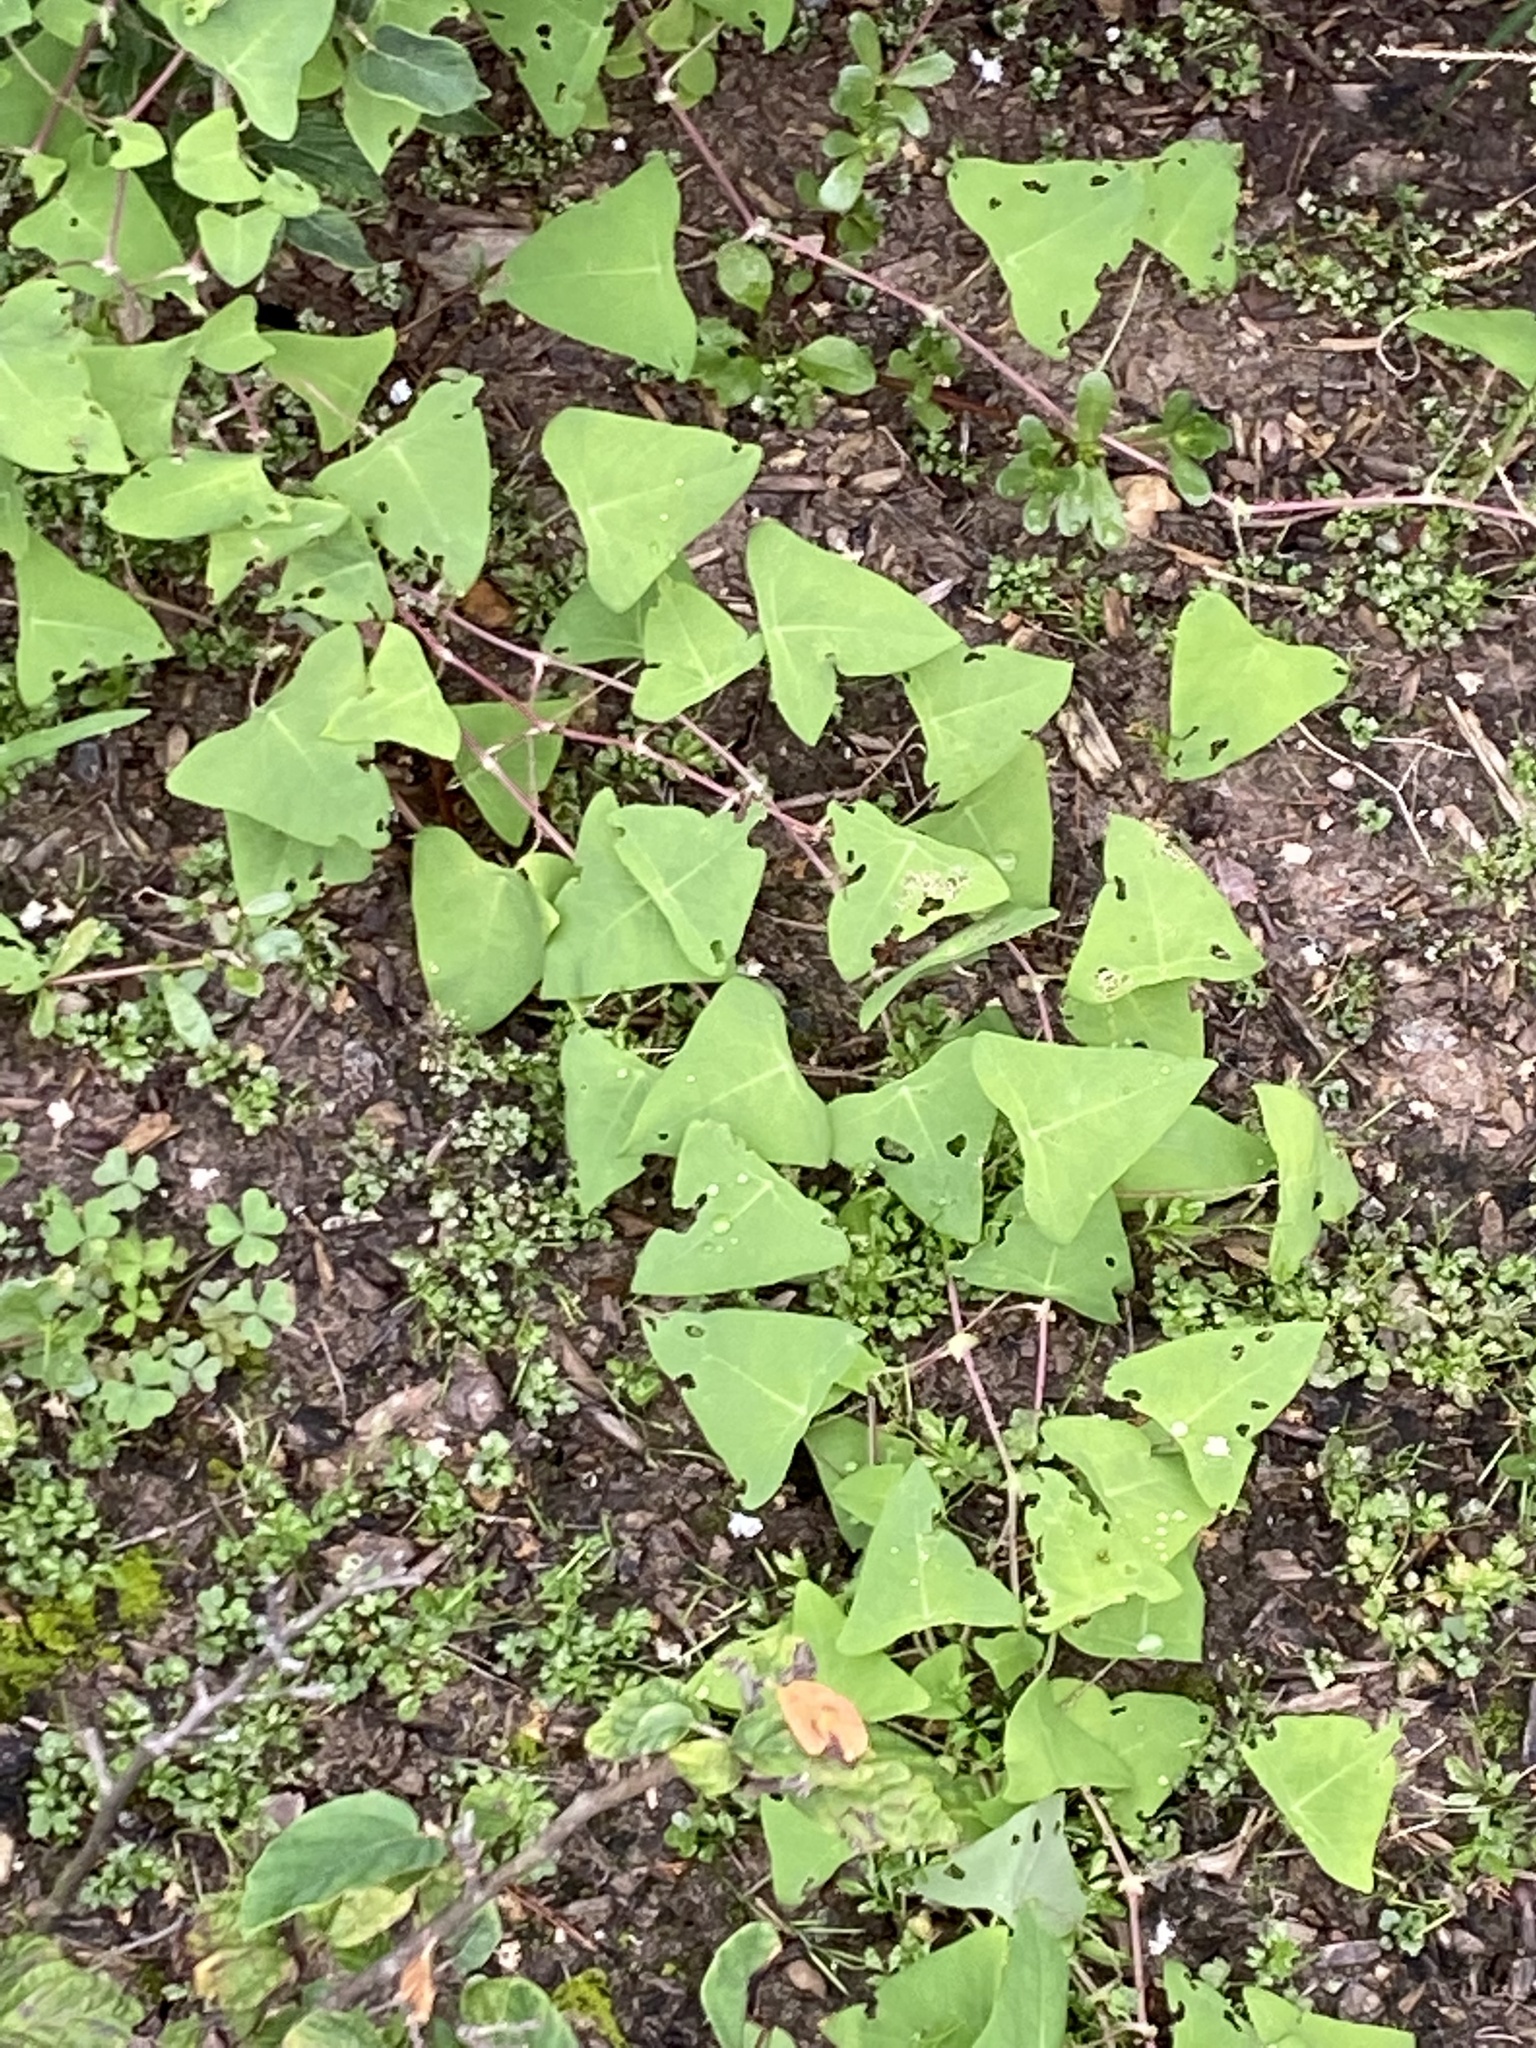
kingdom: Plantae
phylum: Tracheophyta
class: Magnoliopsida
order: Caryophyllales
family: Polygonaceae
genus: Persicaria
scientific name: Persicaria perfoliata
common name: Asiatic tearthumb
